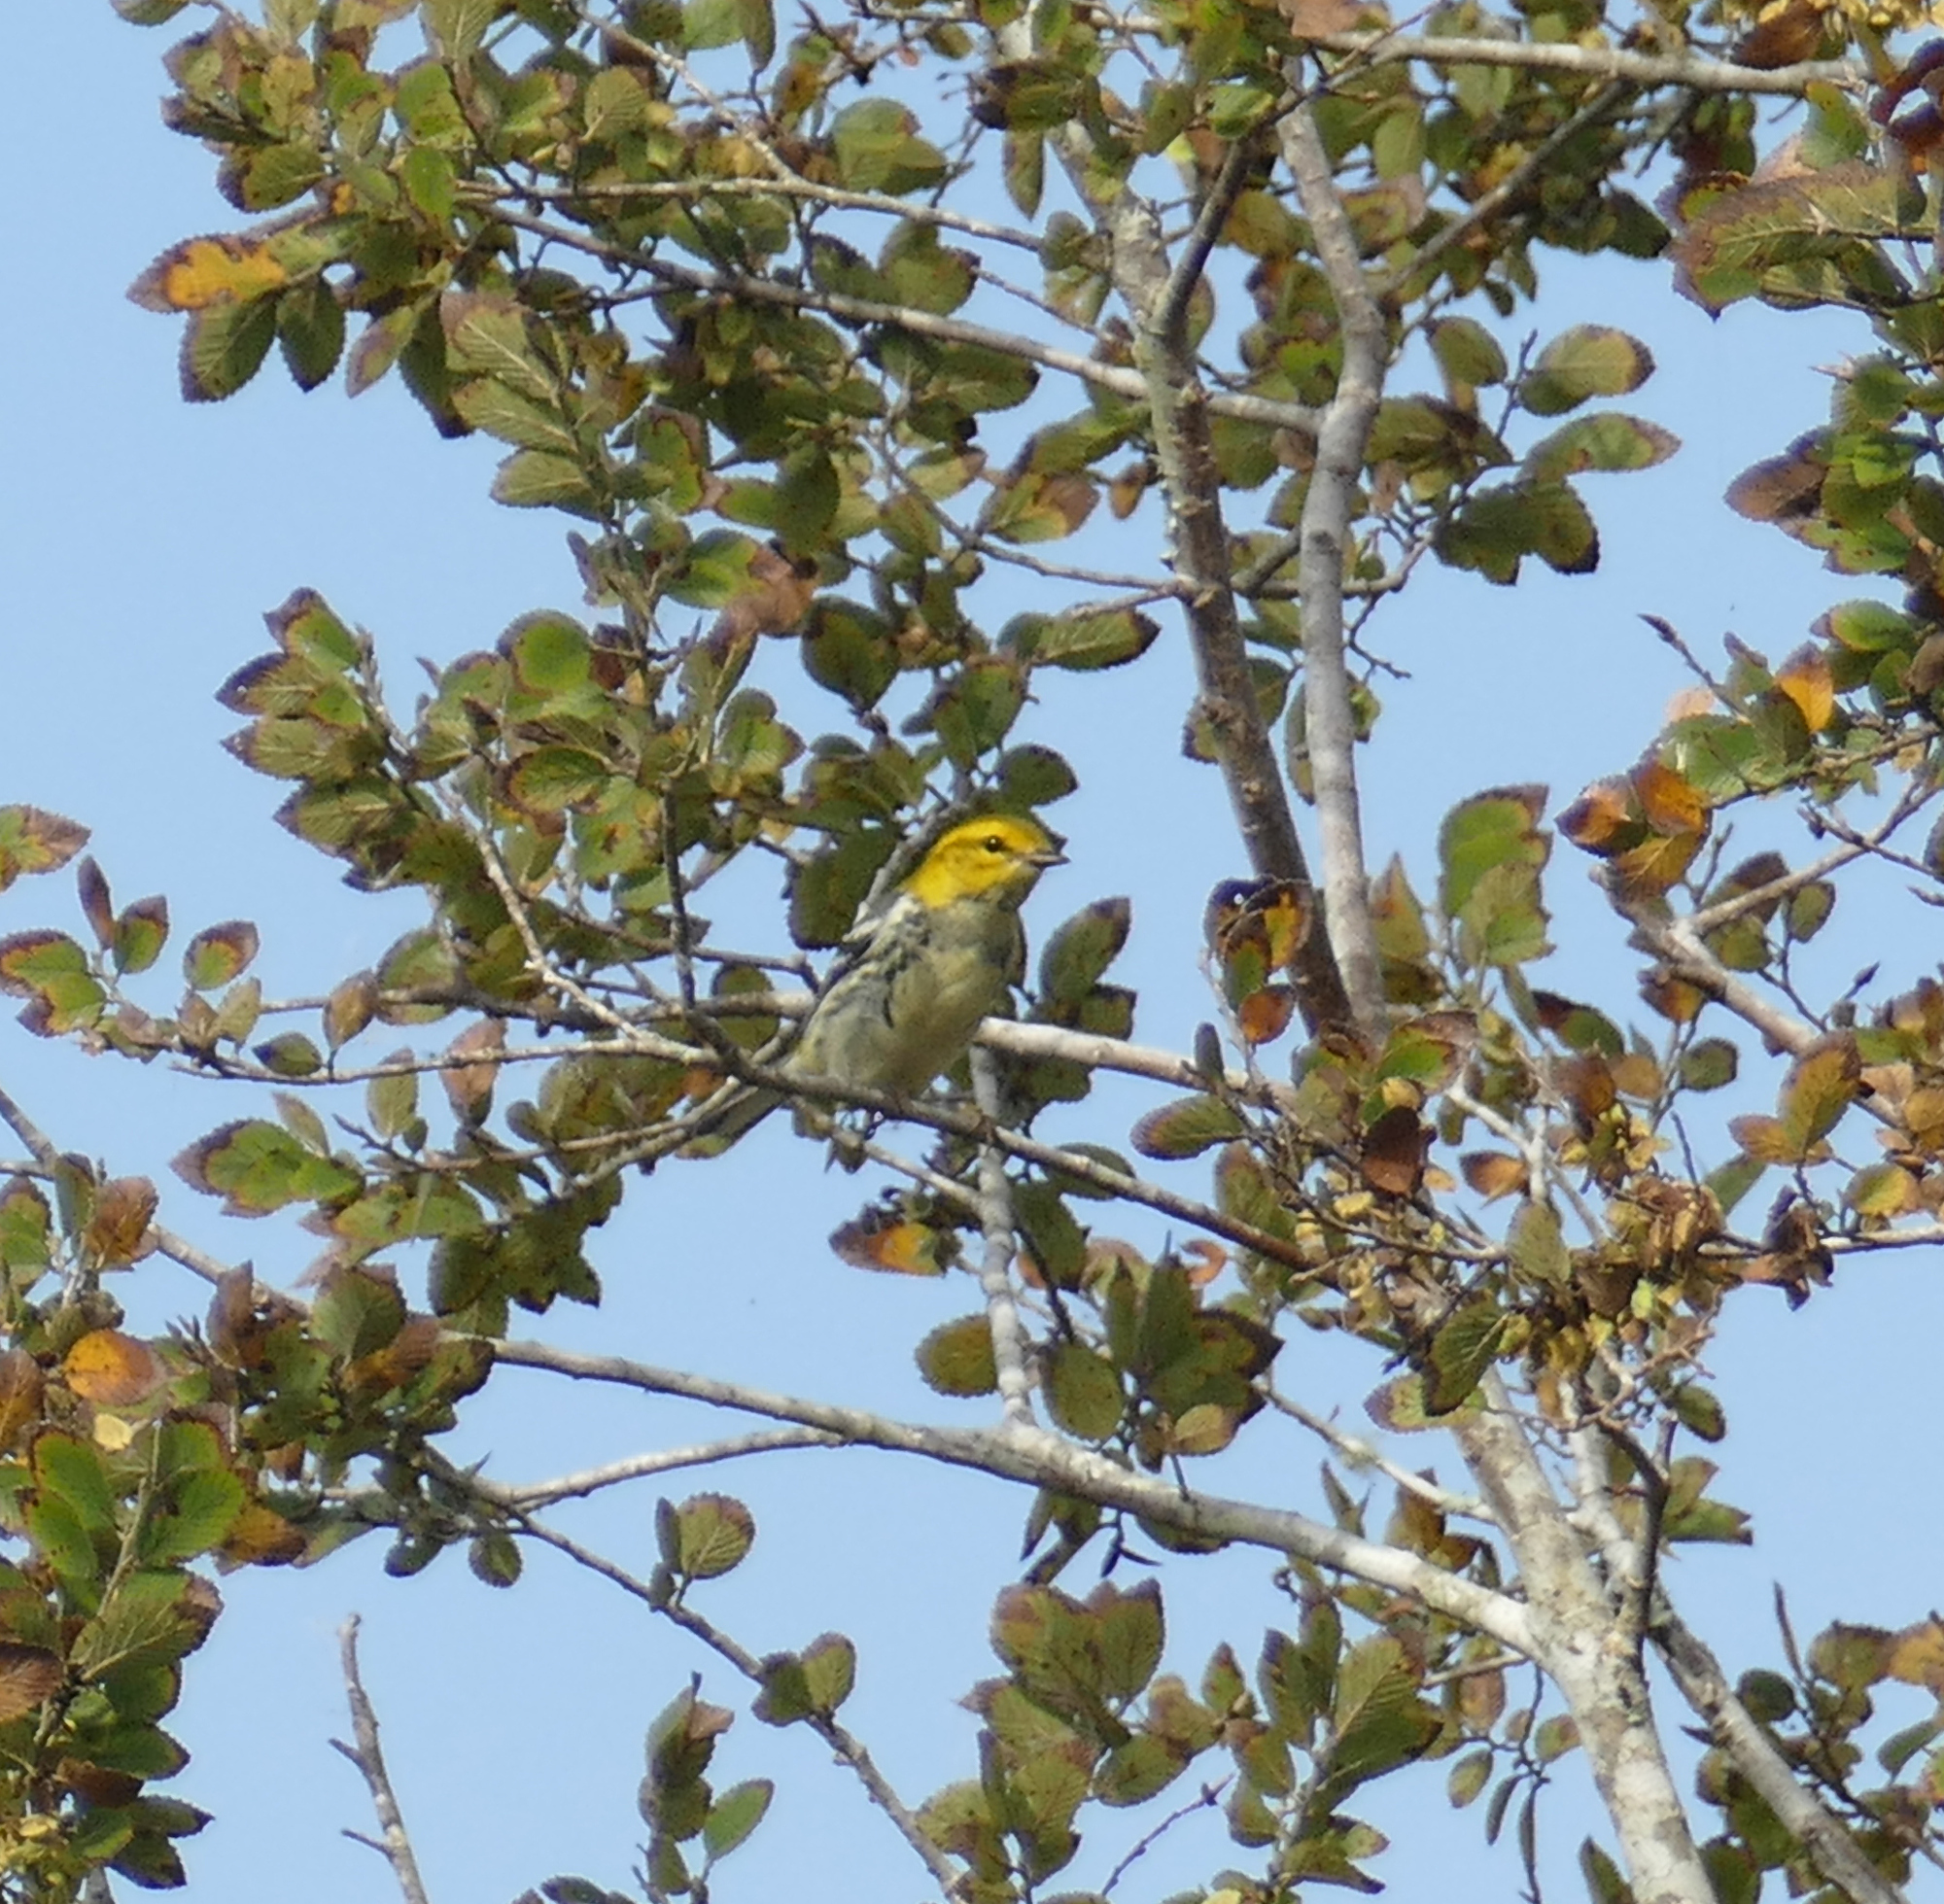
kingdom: Animalia
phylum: Chordata
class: Aves
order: Passeriformes
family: Parulidae
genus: Setophaga
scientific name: Setophaga virens
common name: Black-throated green warbler
